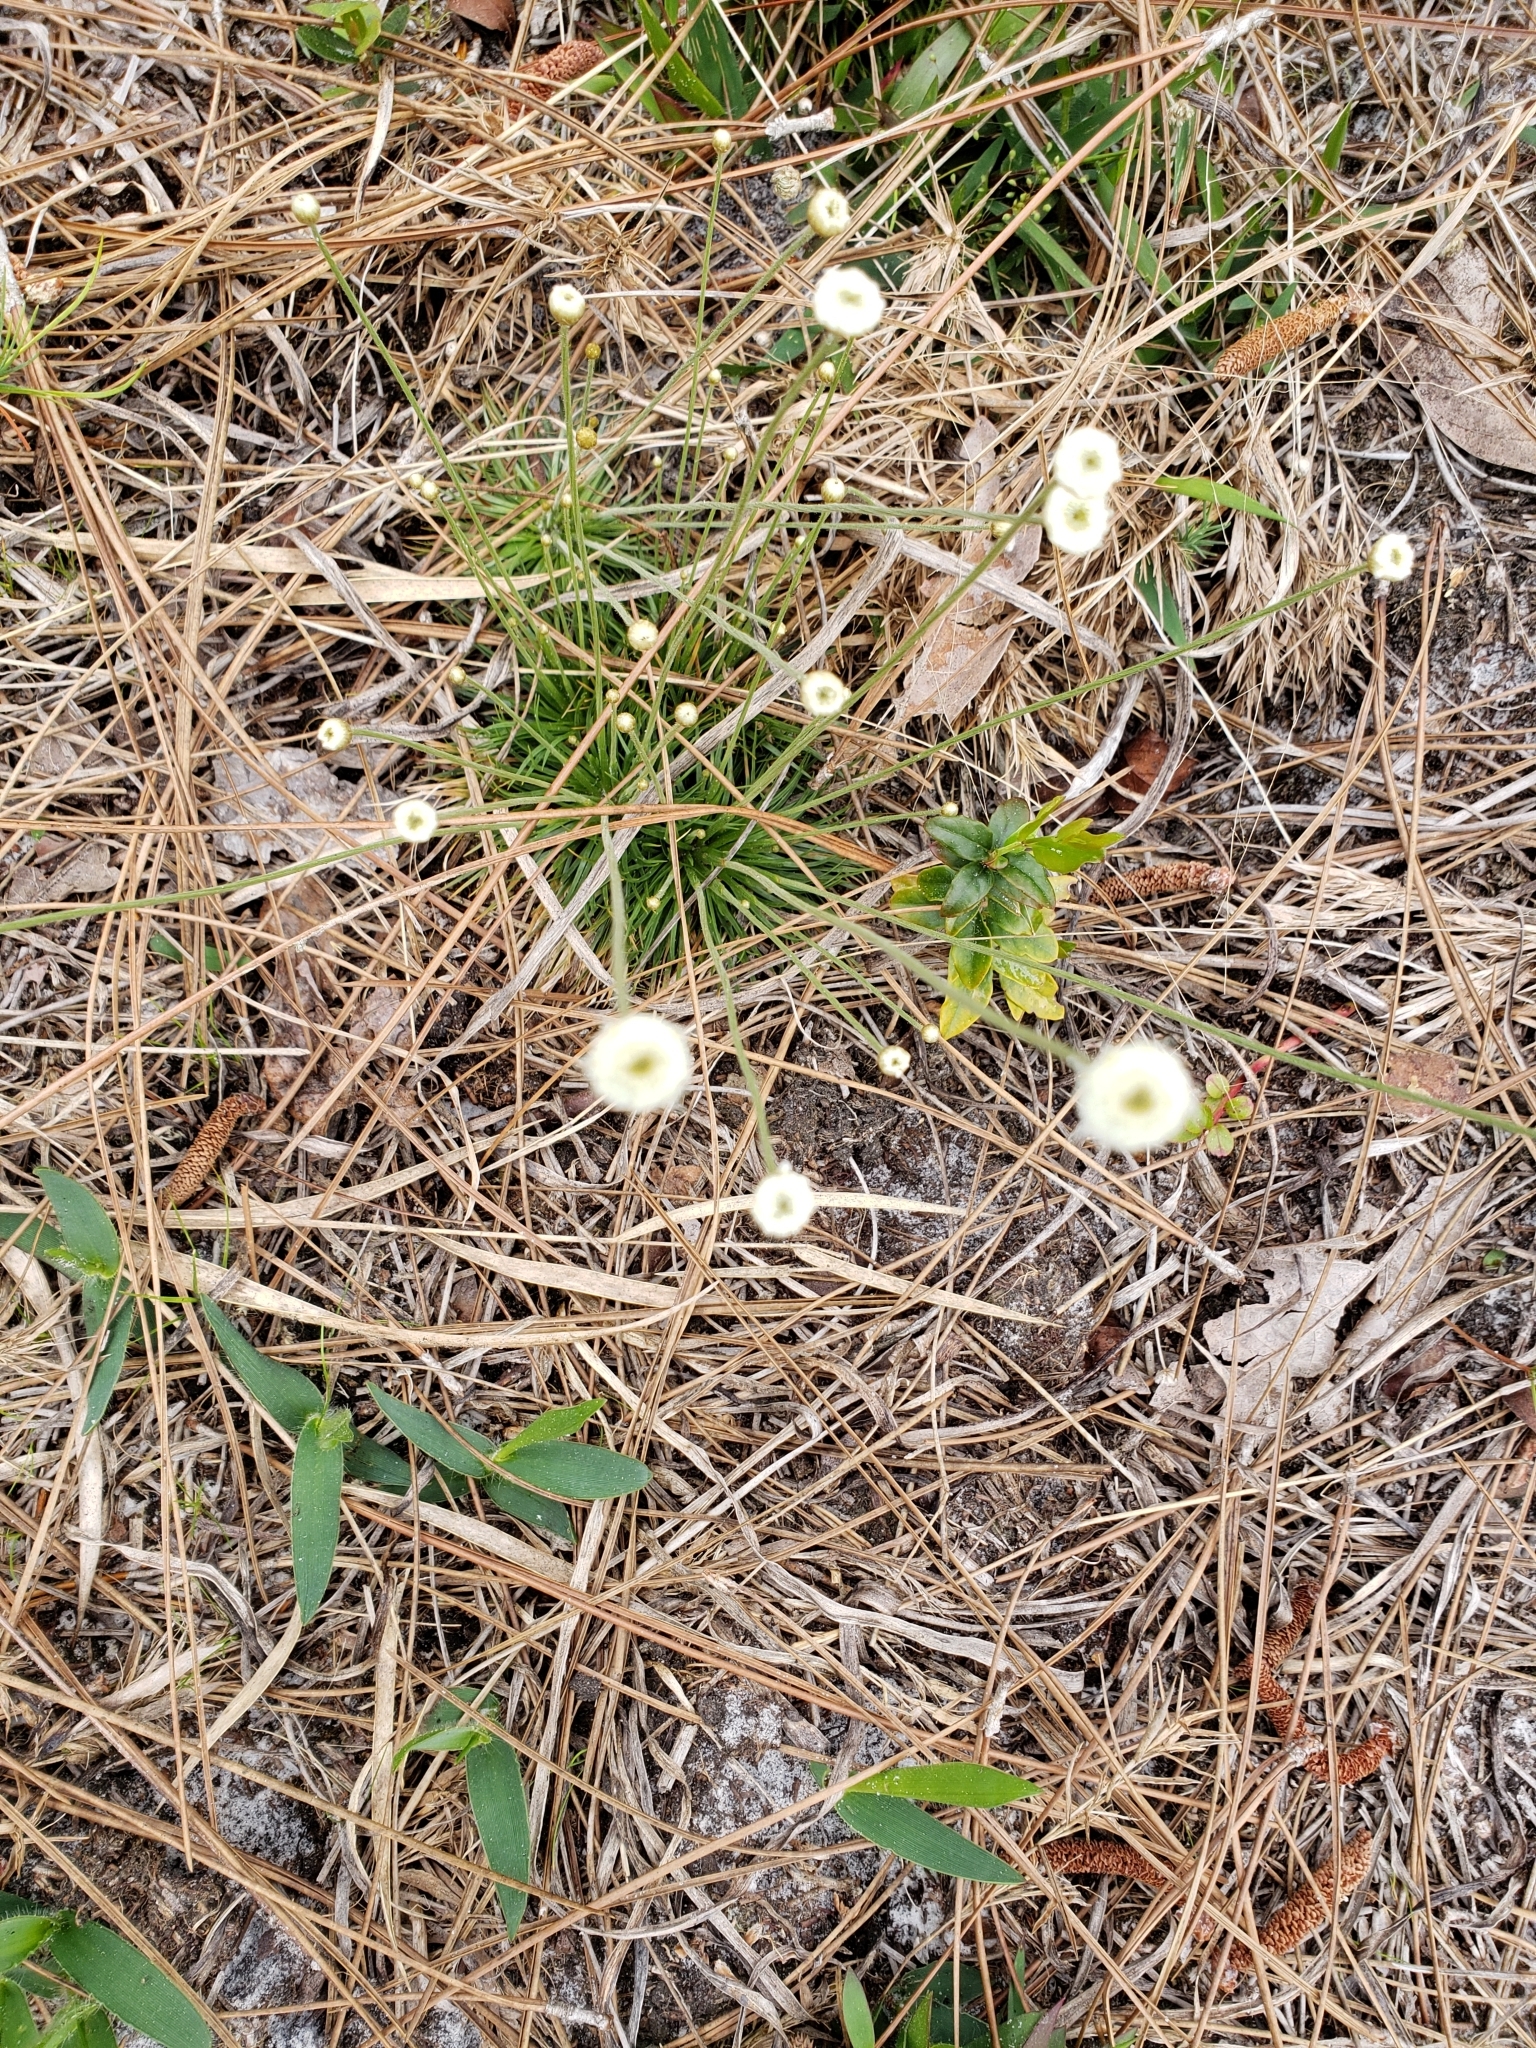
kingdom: Plantae
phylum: Tracheophyta
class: Liliopsida
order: Poales
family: Eriocaulaceae
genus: Syngonanthus
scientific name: Syngonanthus flavidulus
